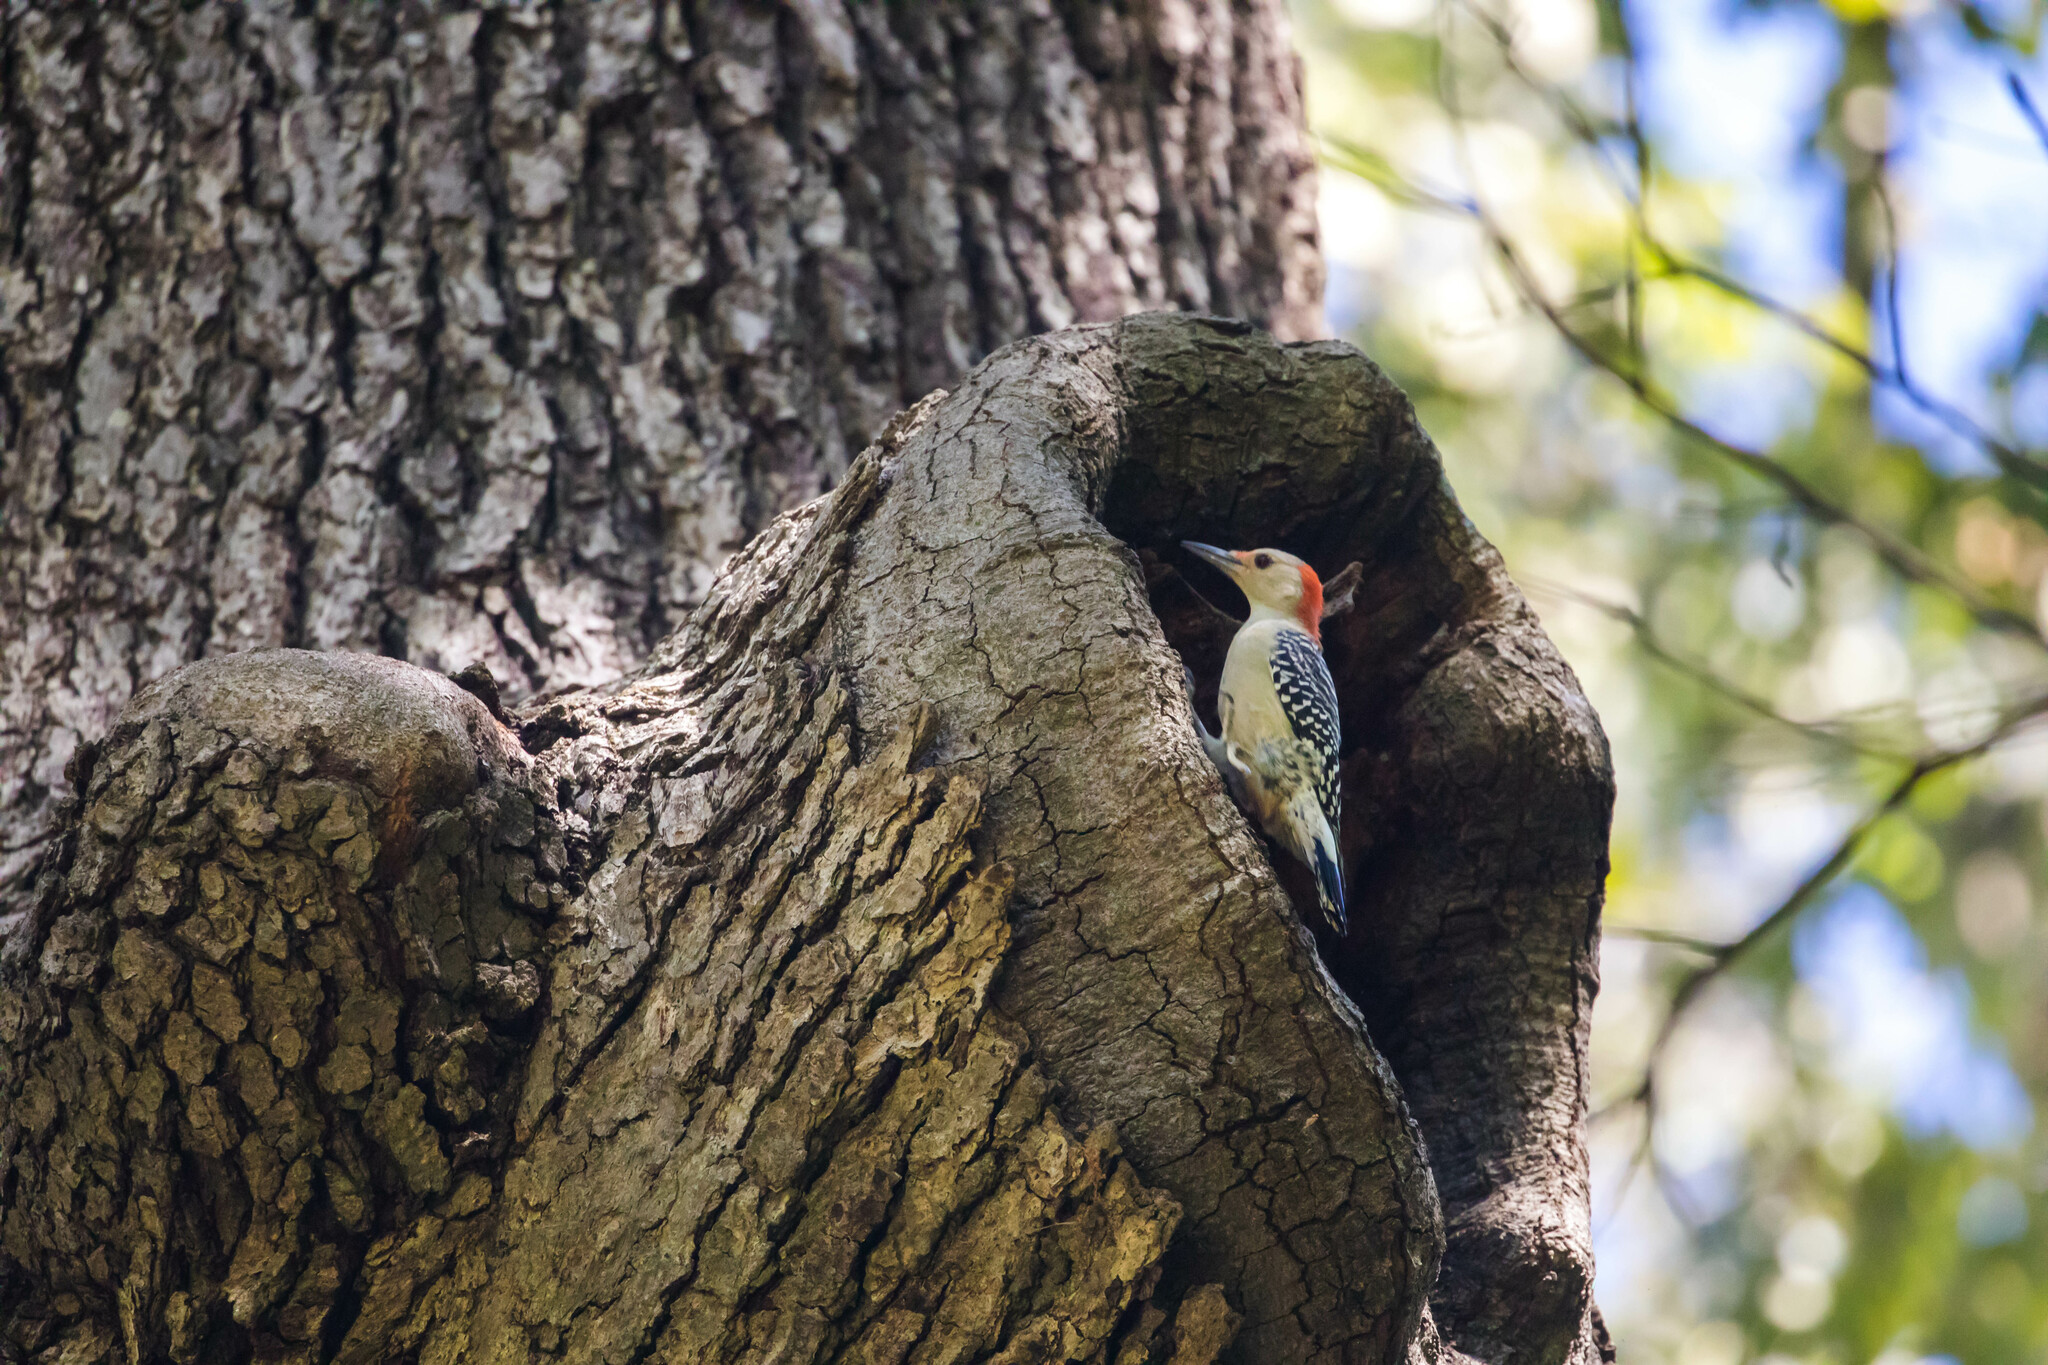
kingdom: Animalia
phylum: Chordata
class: Aves
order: Piciformes
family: Picidae
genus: Melanerpes
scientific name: Melanerpes carolinus
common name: Red-bellied woodpecker
